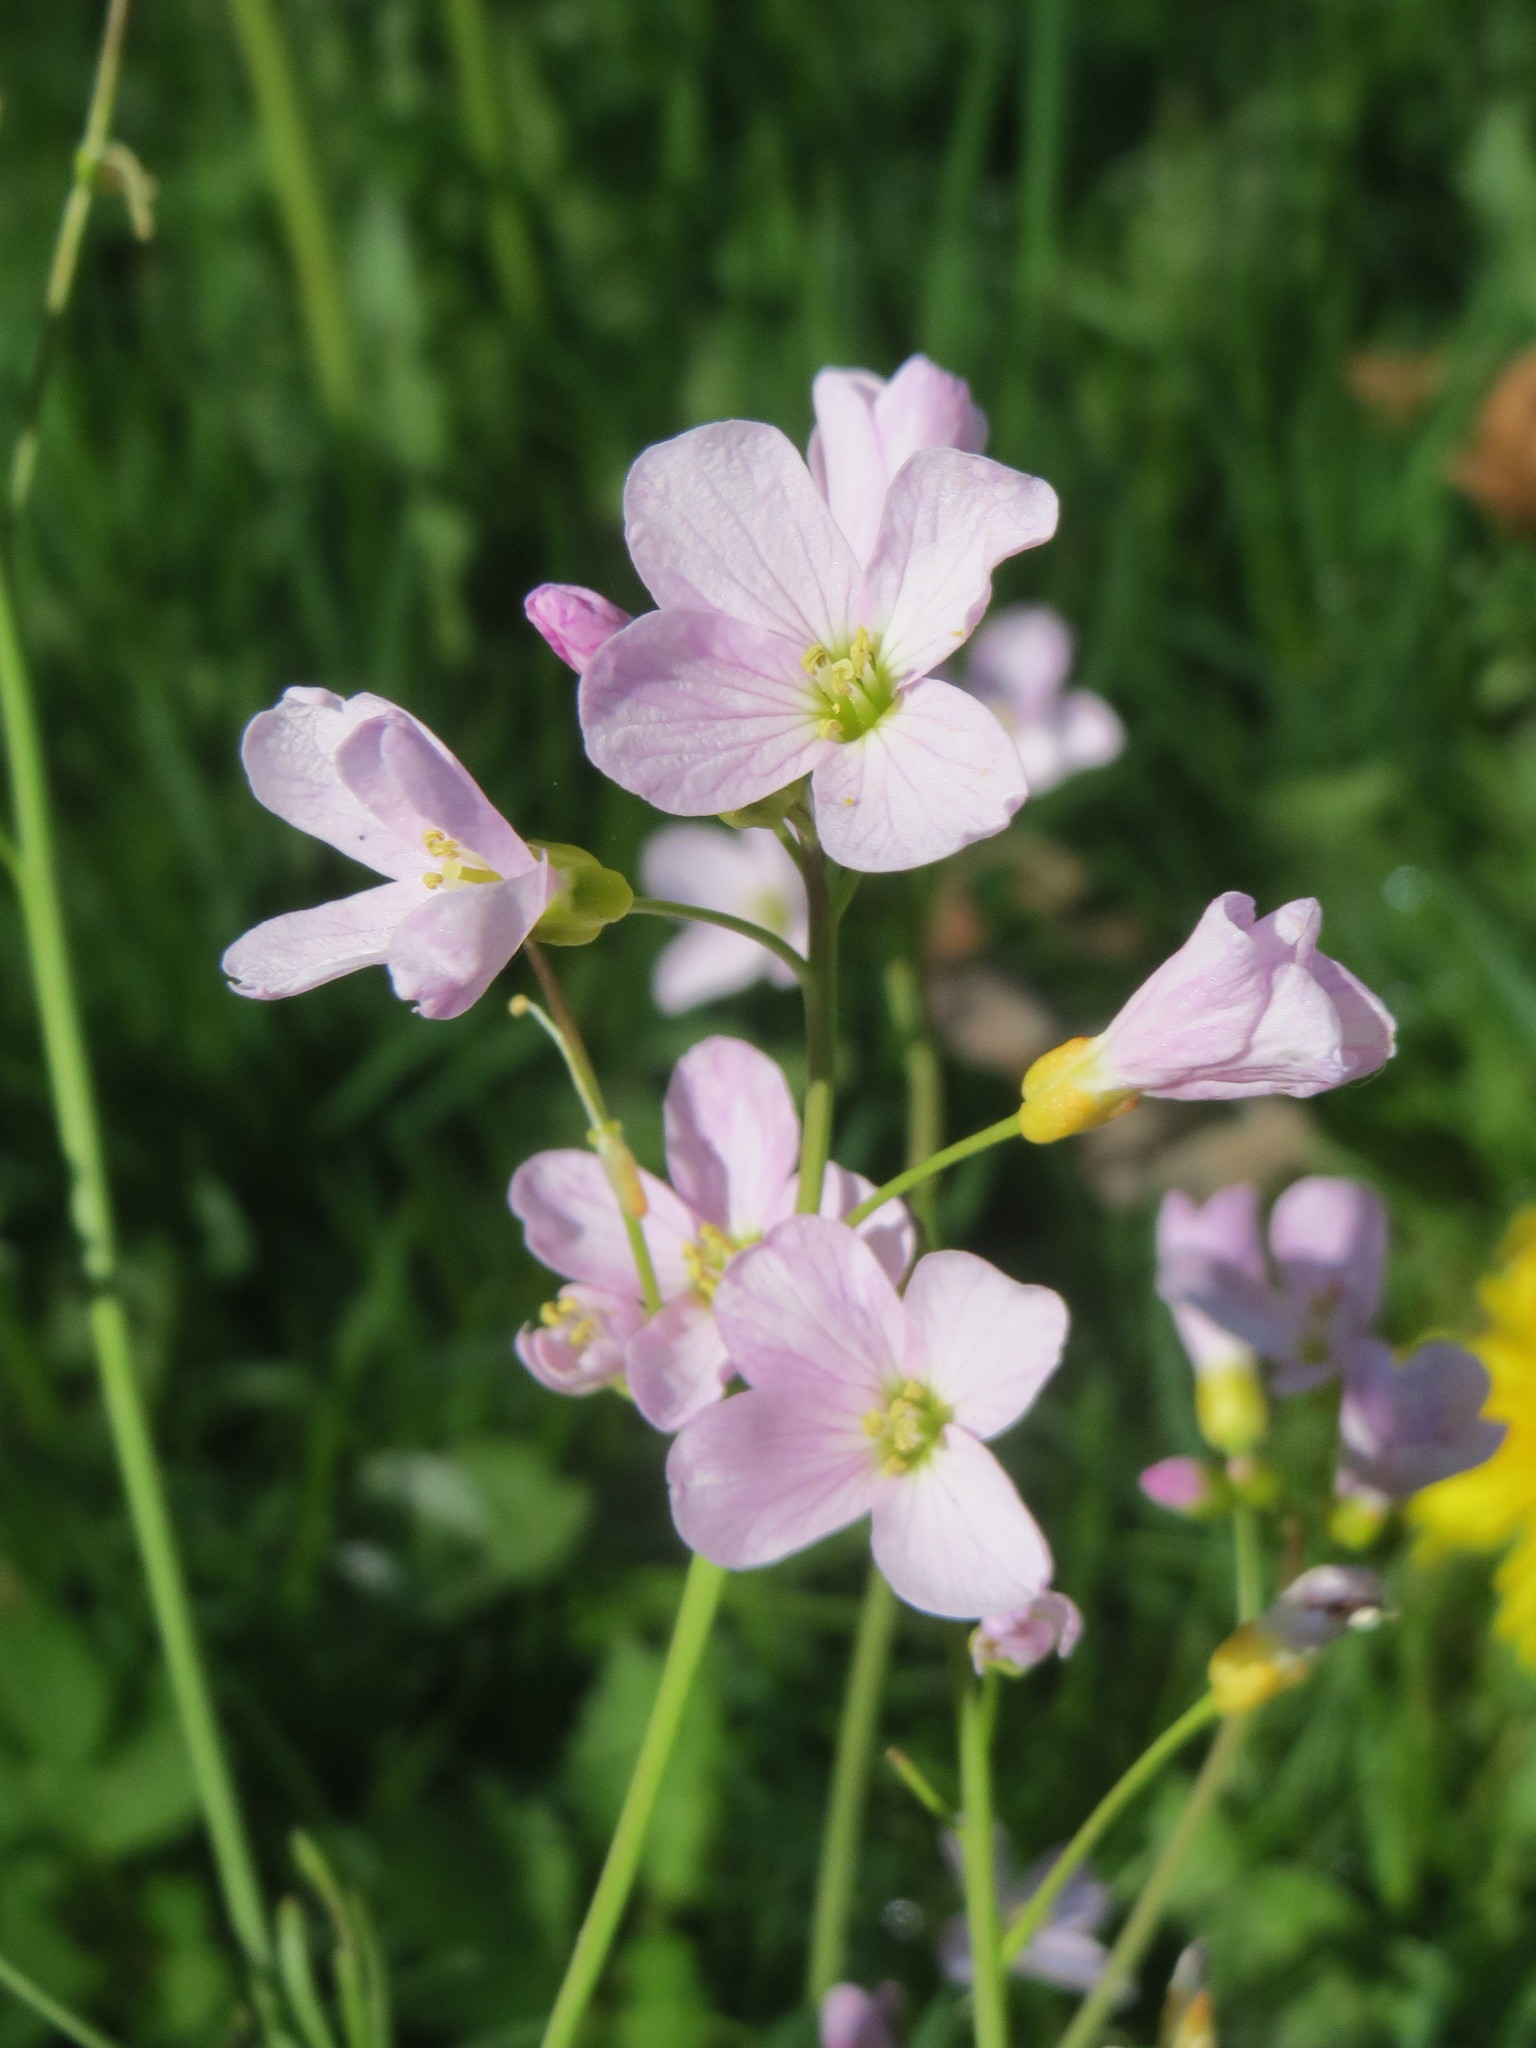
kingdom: Plantae
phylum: Tracheophyta
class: Magnoliopsida
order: Brassicales
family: Brassicaceae
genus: Cardamine
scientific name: Cardamine pratensis
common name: Cuckoo flower
